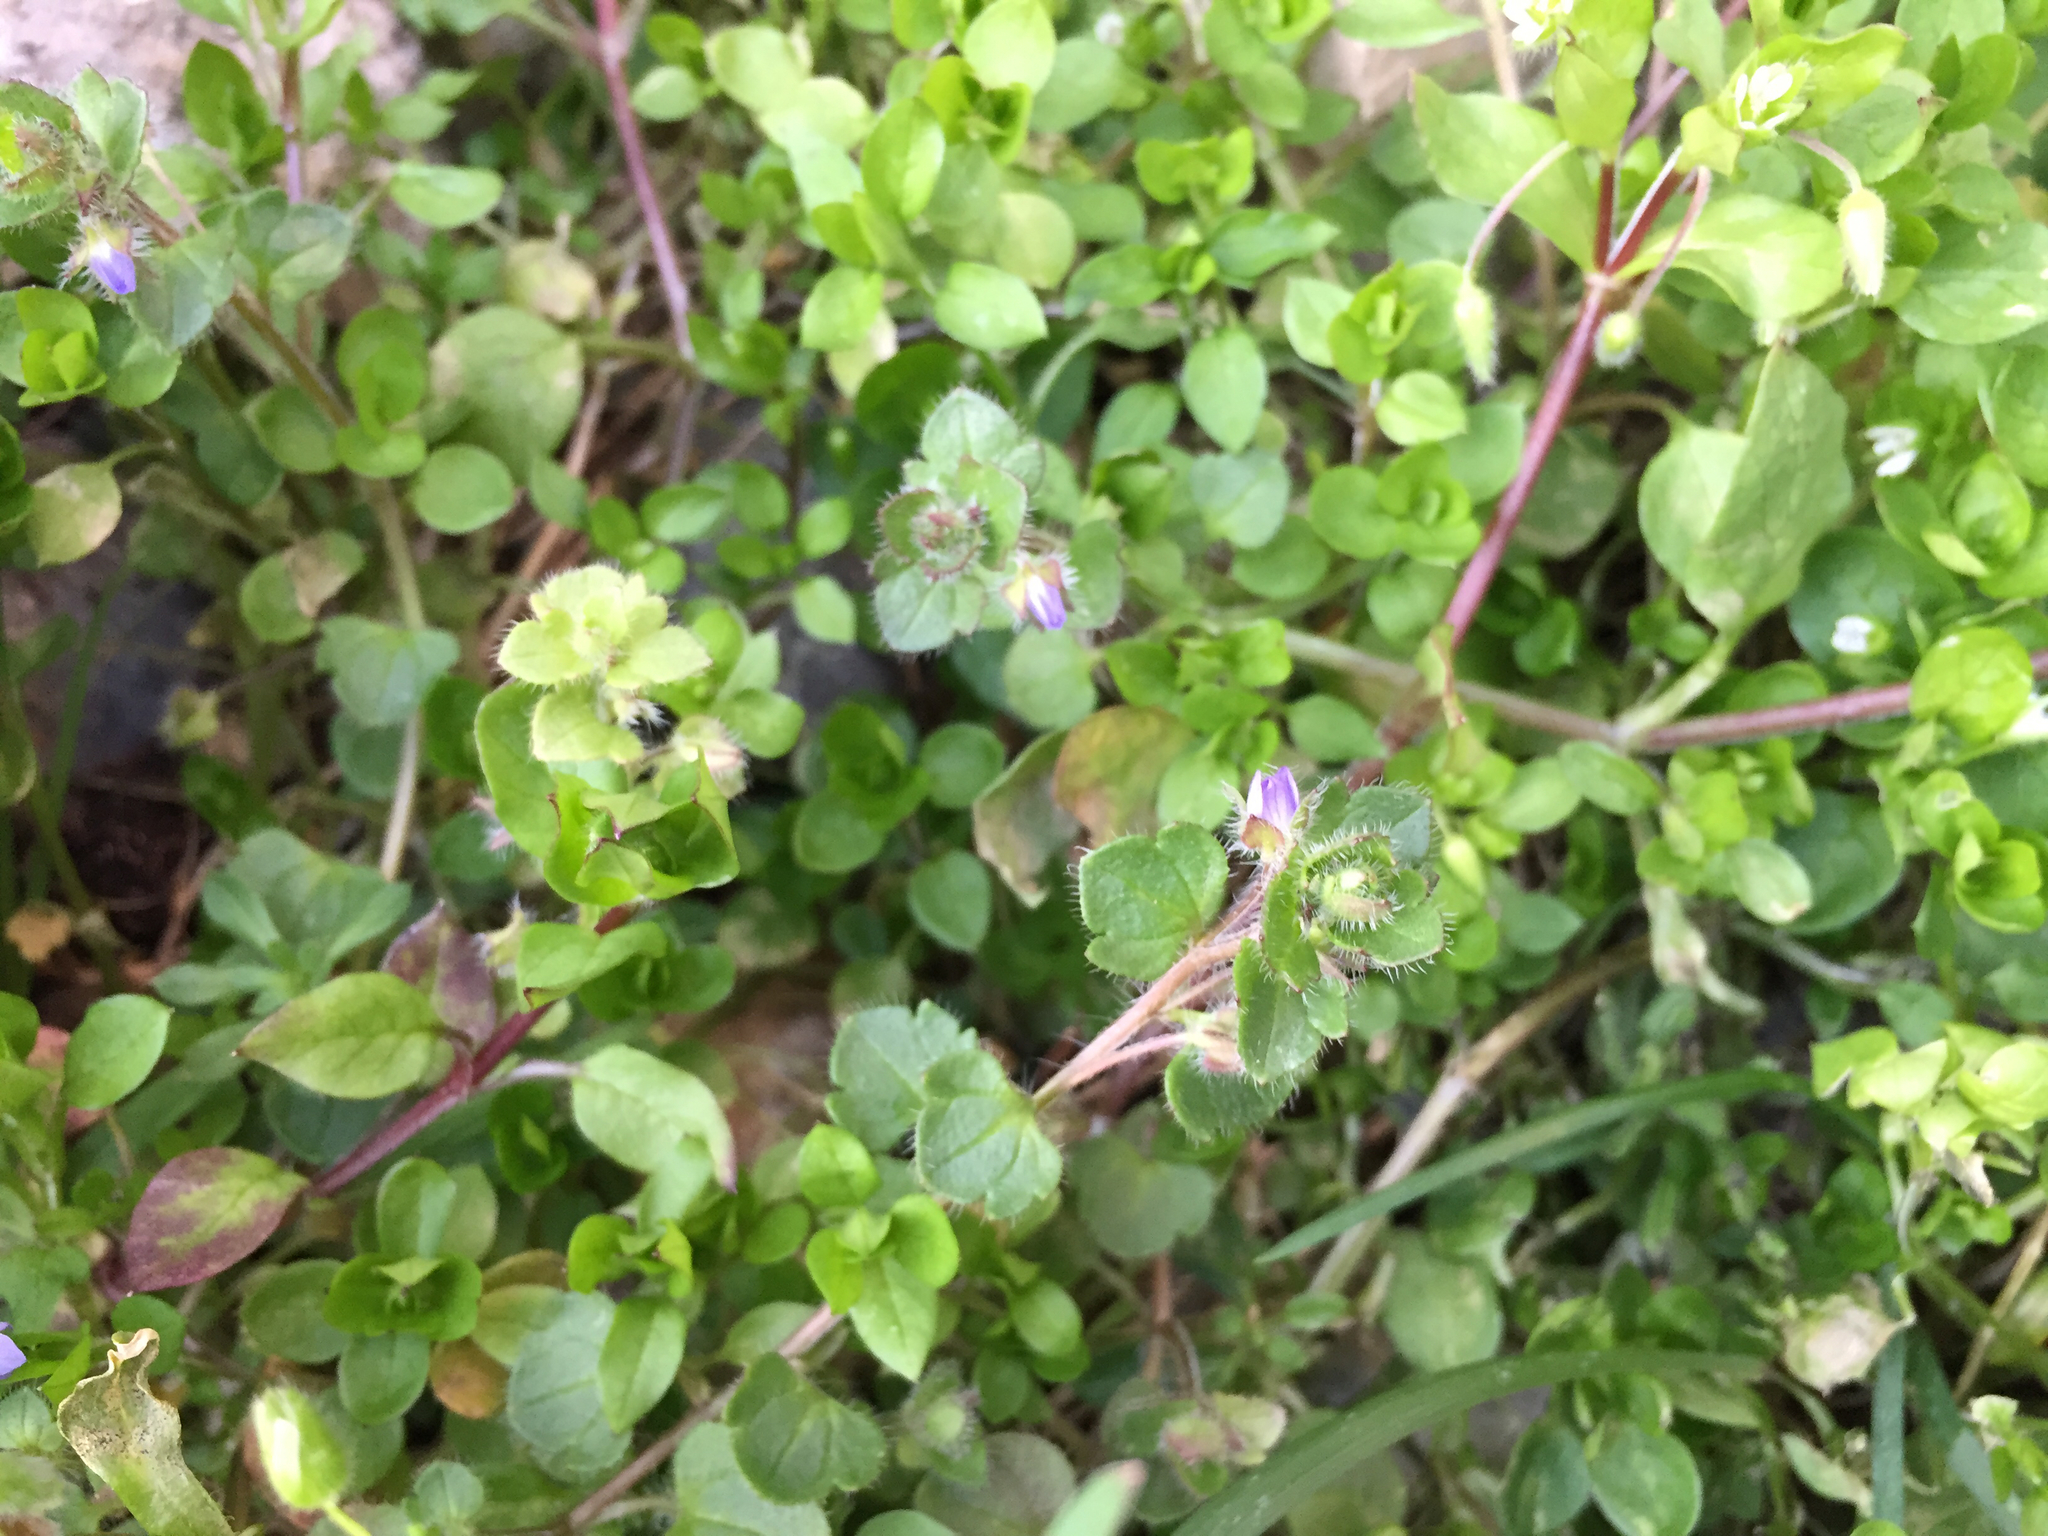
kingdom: Plantae
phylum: Tracheophyta
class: Magnoliopsida
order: Lamiales
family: Plantaginaceae
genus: Veronica
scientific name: Veronica hederifolia
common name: Ivy-leaved speedwell
